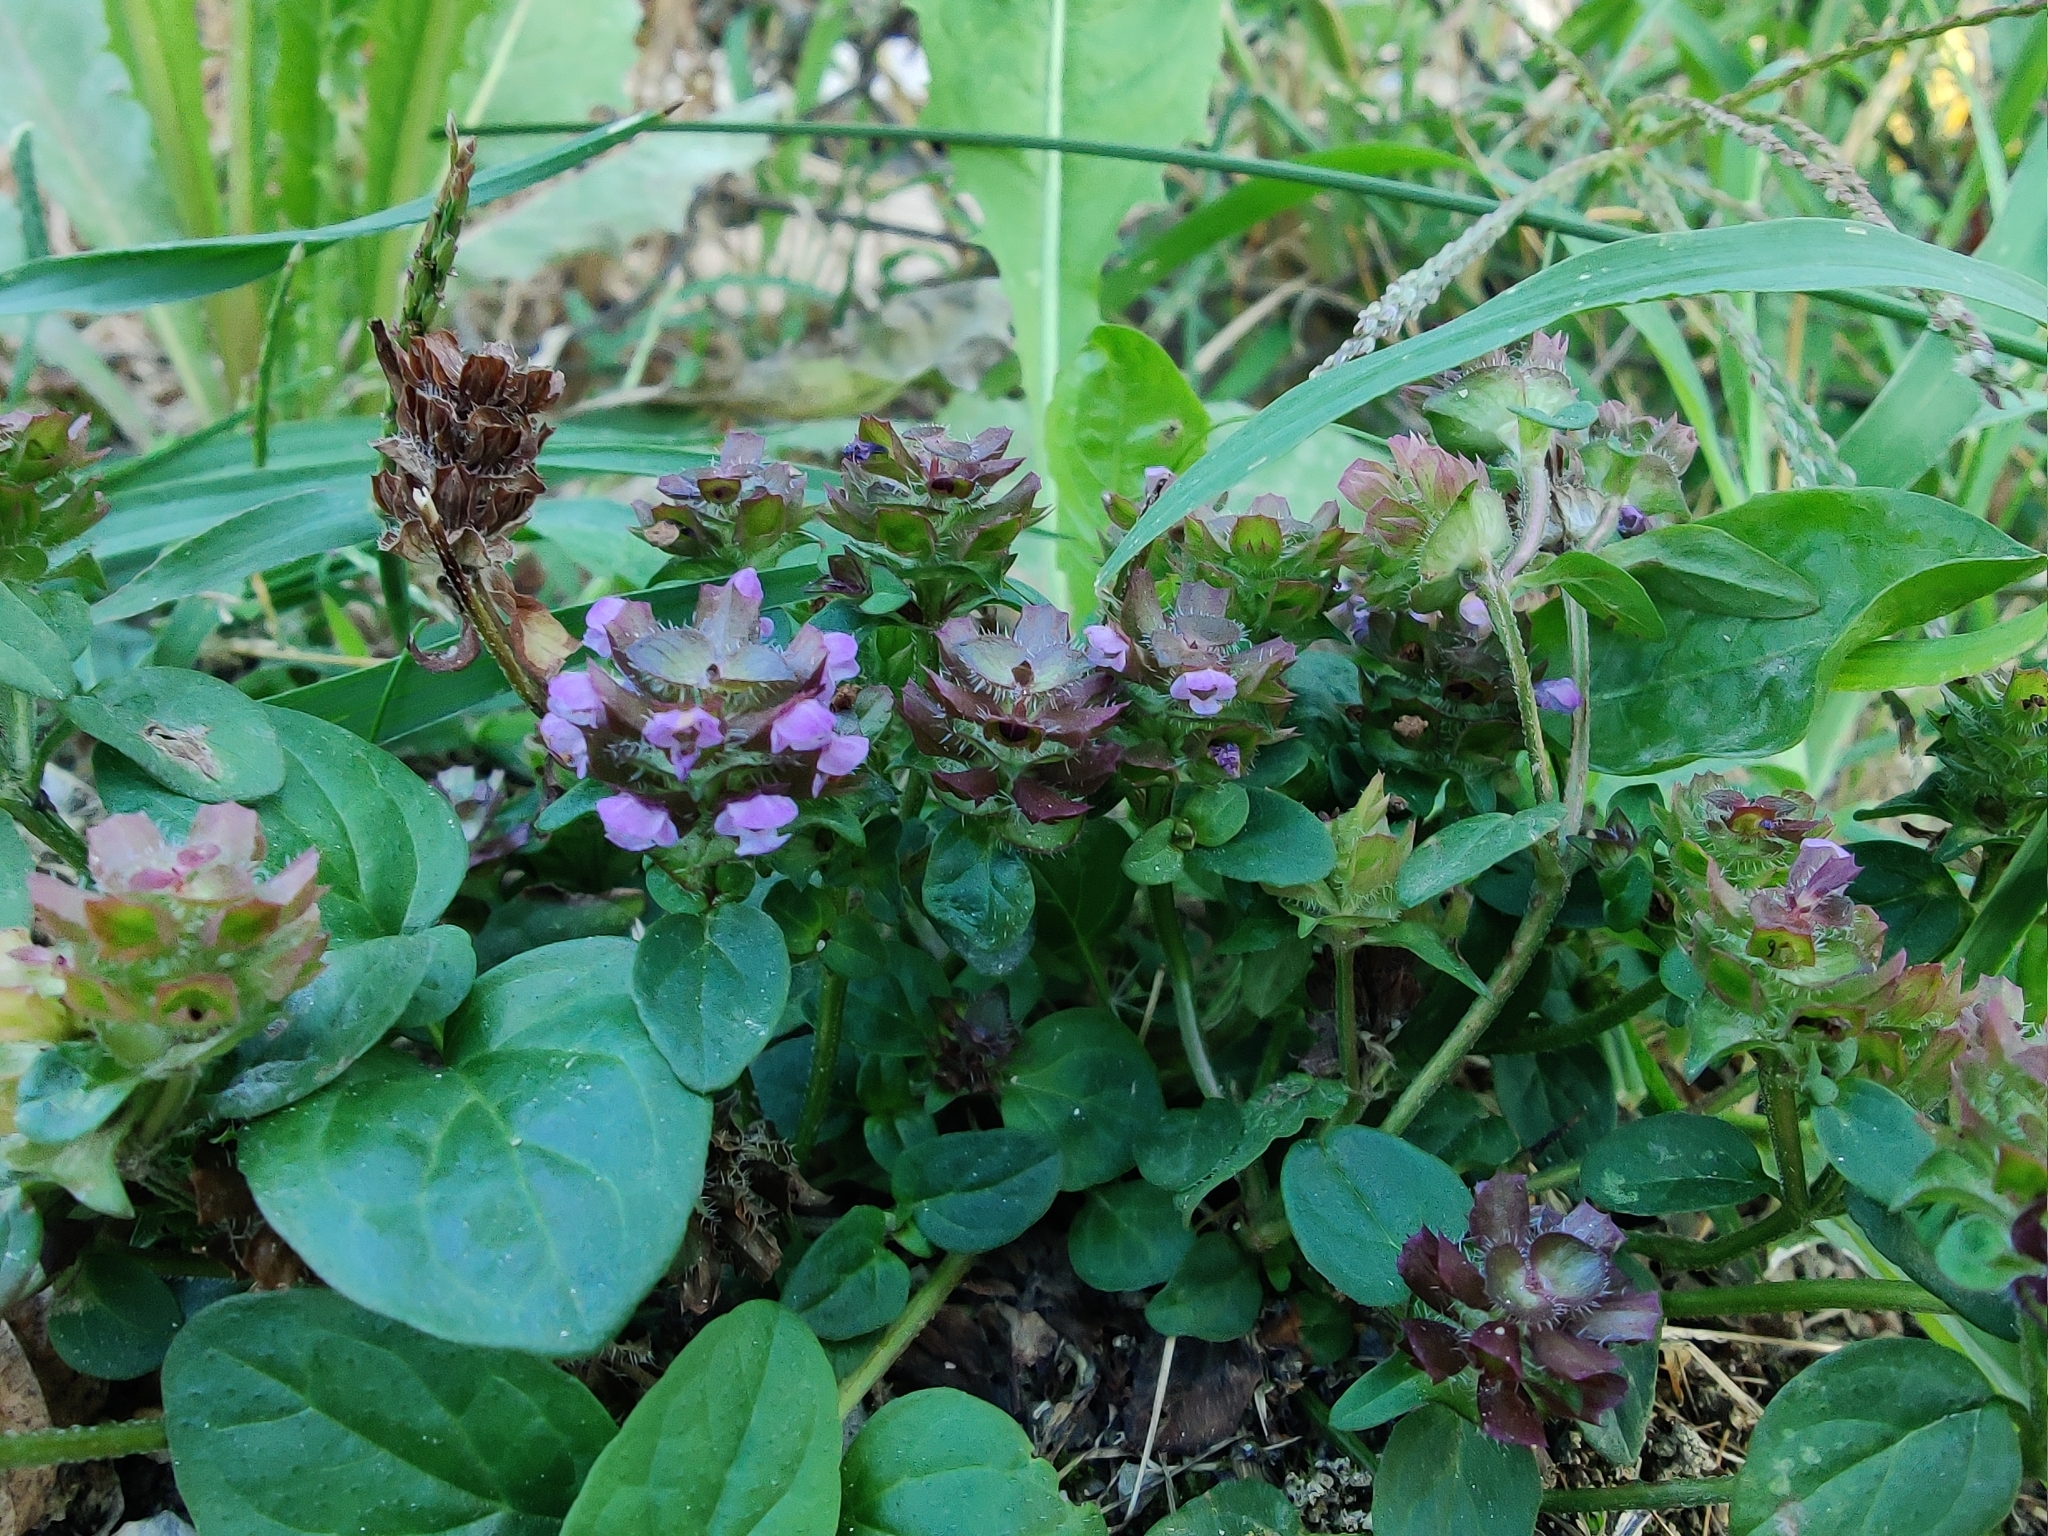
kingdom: Plantae
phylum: Tracheophyta
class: Magnoliopsida
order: Lamiales
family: Lamiaceae
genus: Prunella
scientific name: Prunella vulgaris
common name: Heal-all
